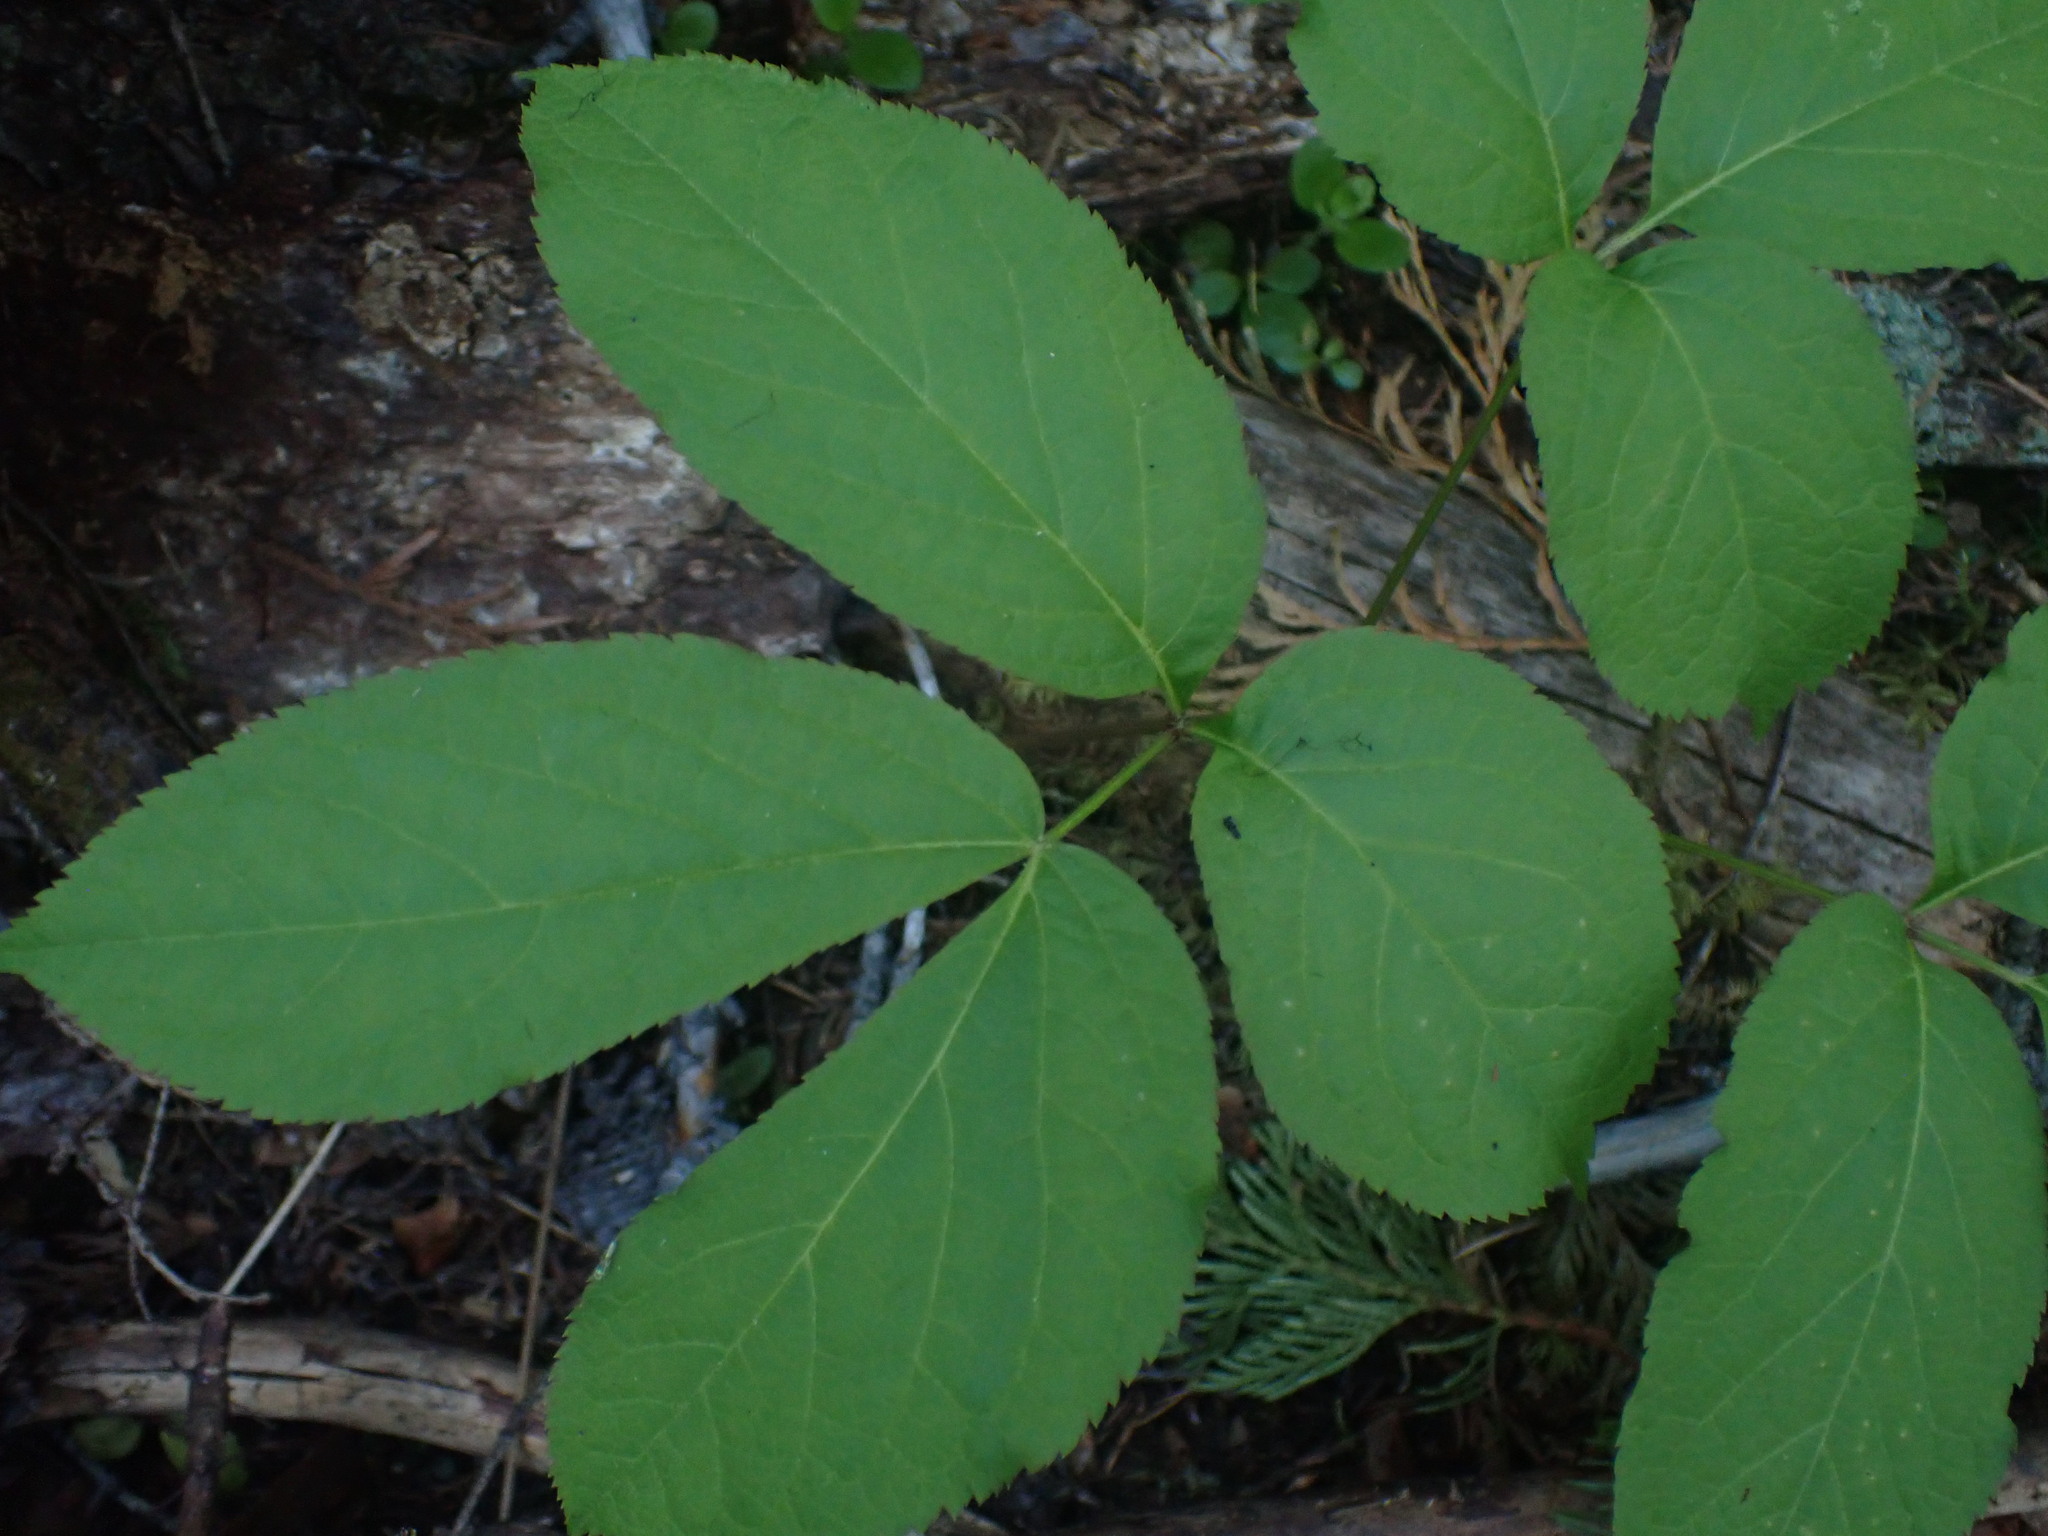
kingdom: Plantae
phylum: Tracheophyta
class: Magnoliopsida
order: Apiales
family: Araliaceae
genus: Aralia
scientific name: Aralia nudicaulis
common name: Wild sarsaparilla
